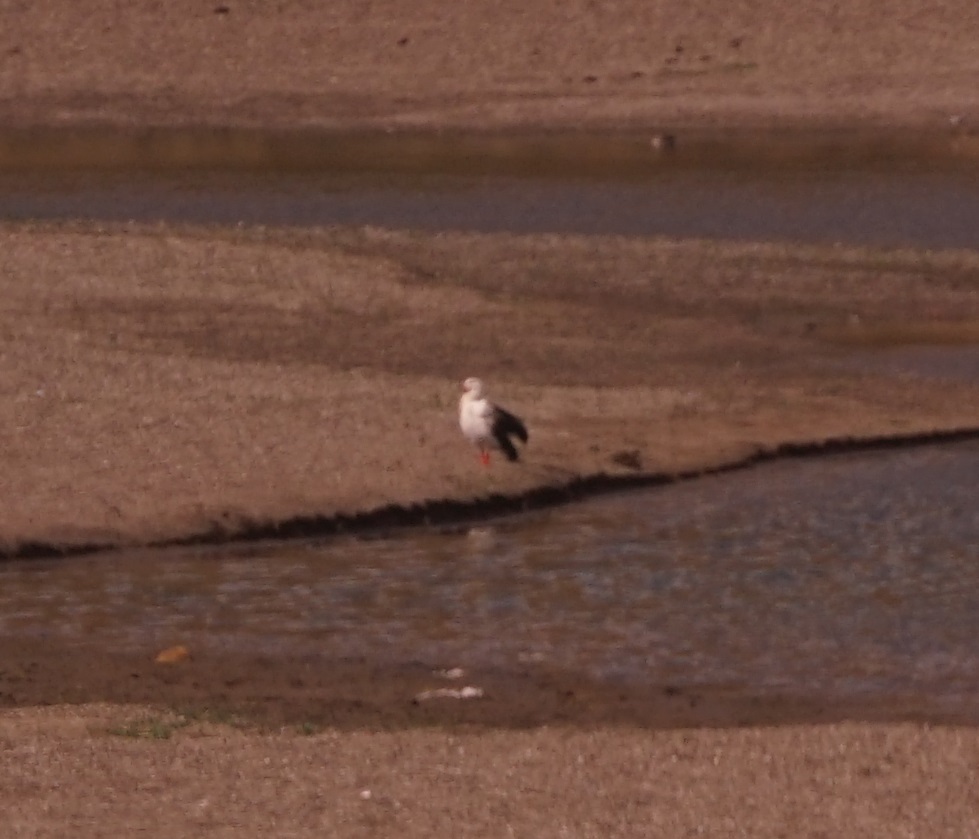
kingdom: Animalia
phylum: Chordata
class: Aves
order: Anseriformes
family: Anatidae
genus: Chloephaga
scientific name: Chloephaga melanoptera
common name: Andean goose
